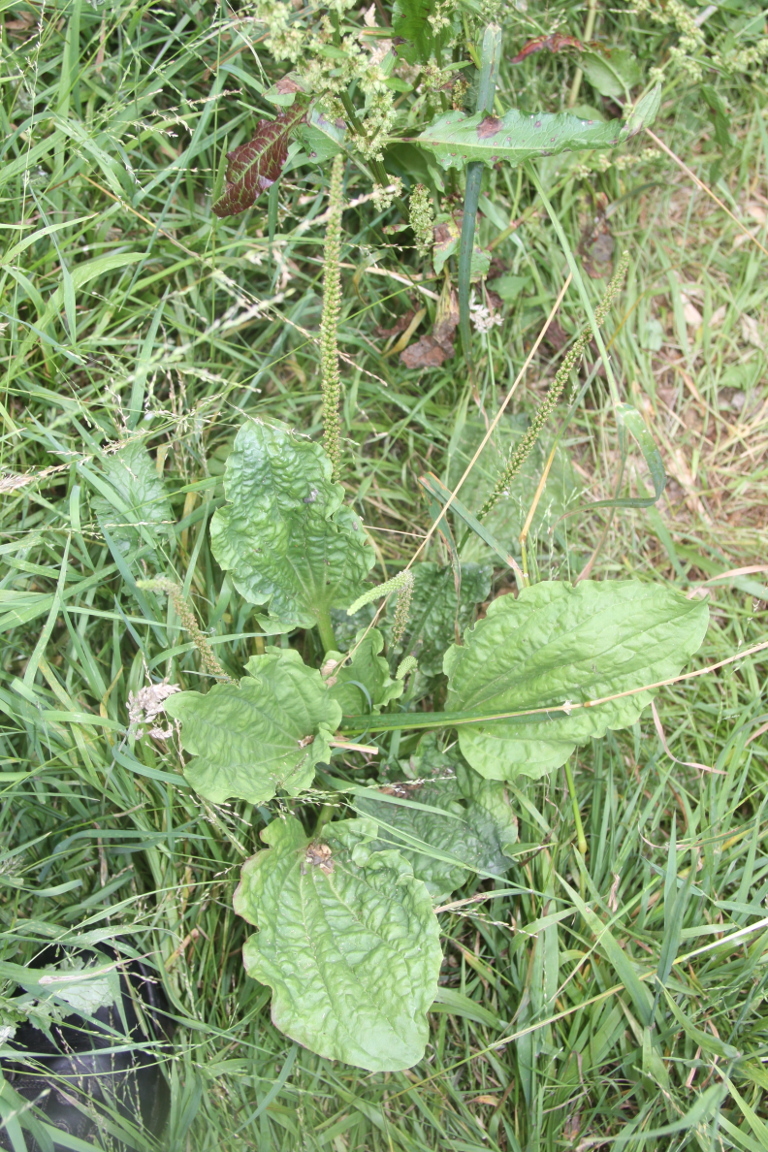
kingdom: Plantae
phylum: Tracheophyta
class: Magnoliopsida
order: Lamiales
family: Plantaginaceae
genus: Plantago
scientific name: Plantago major
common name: Common plantain
